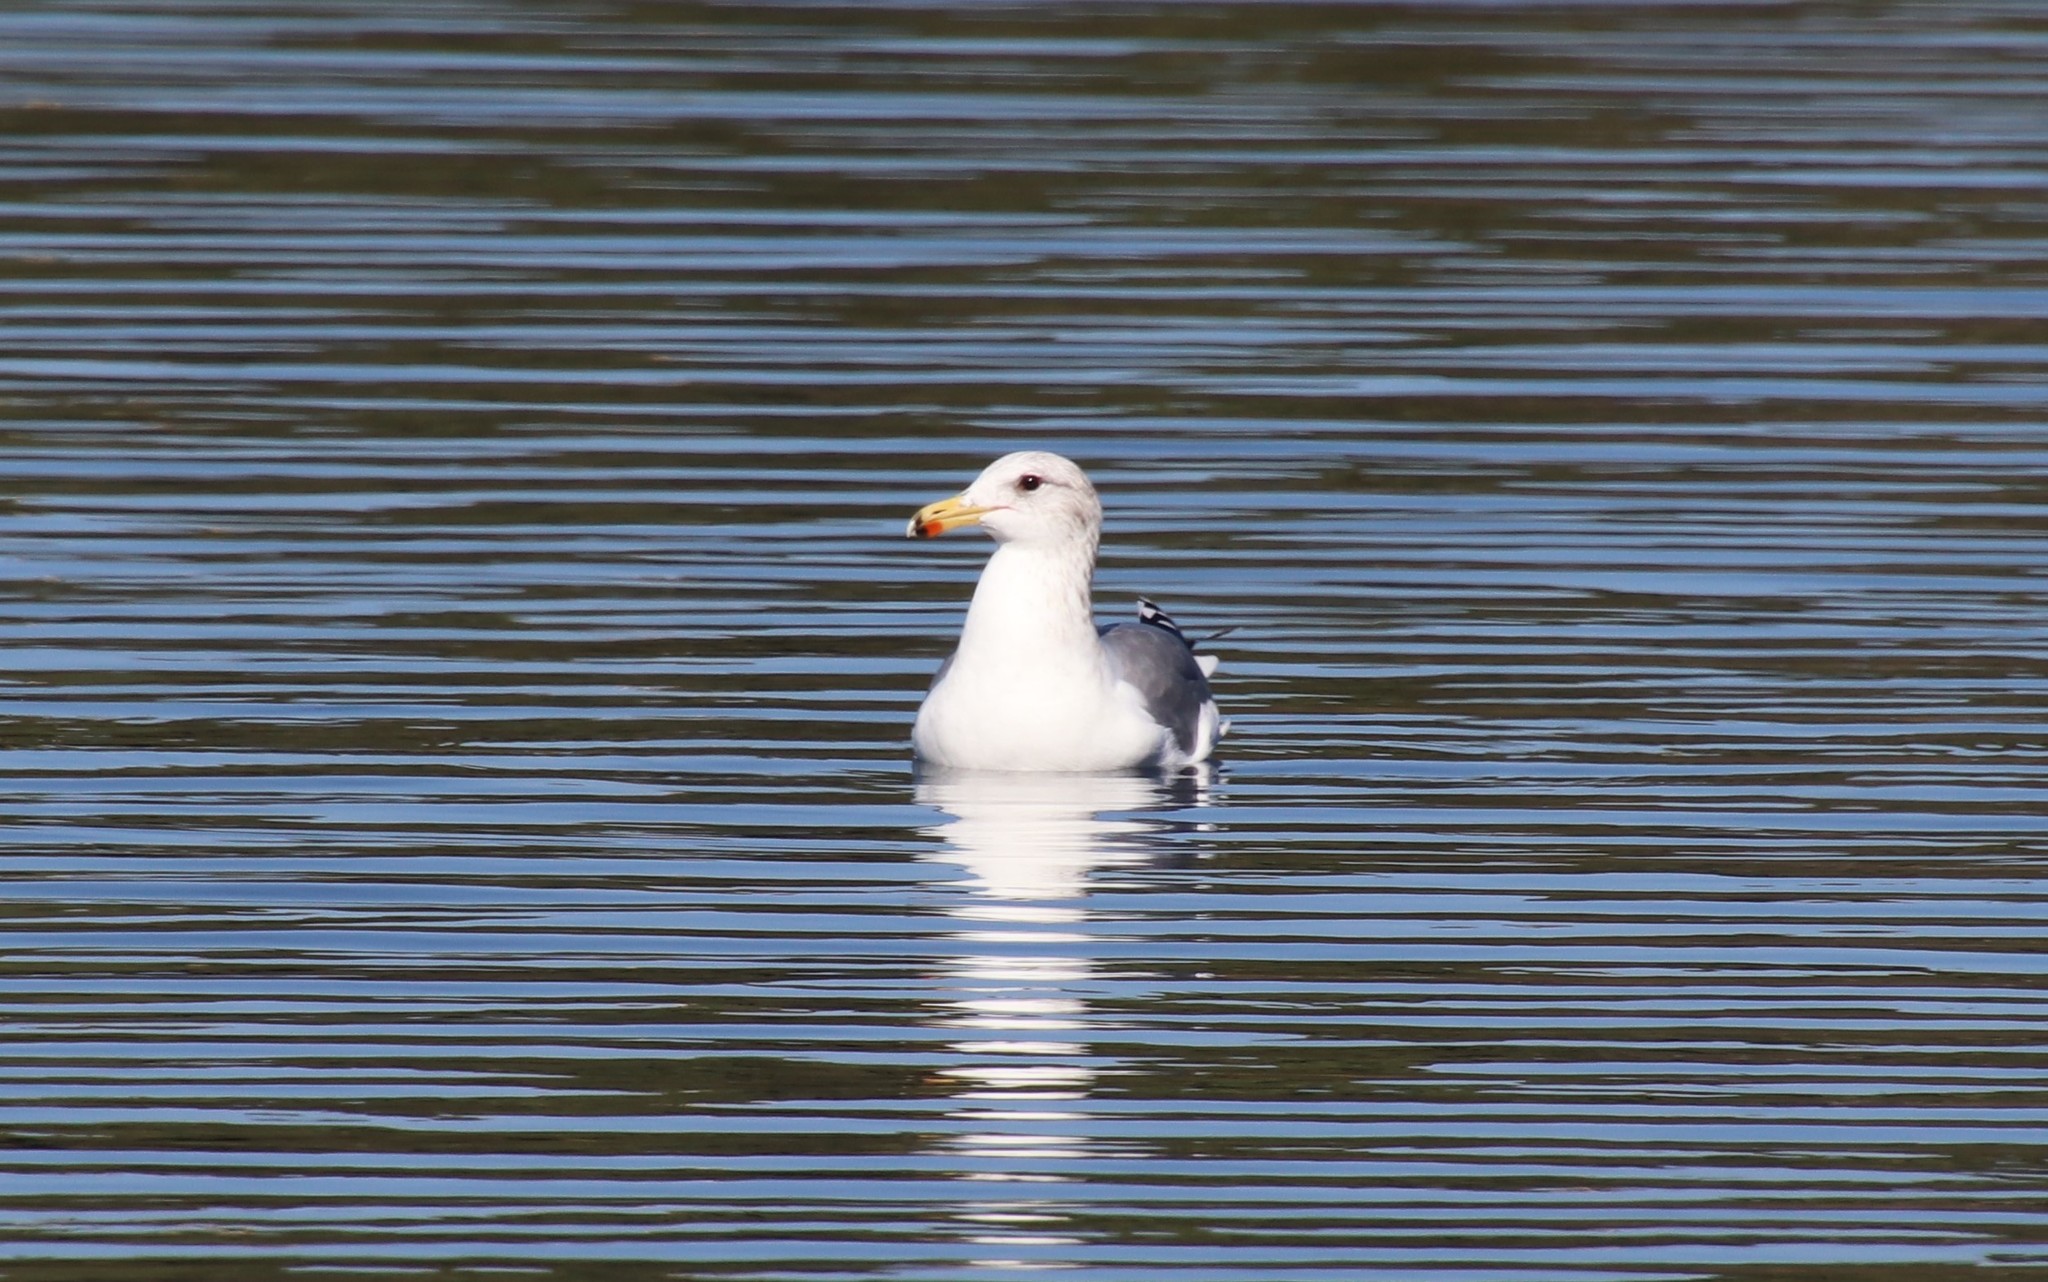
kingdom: Animalia
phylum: Chordata
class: Aves
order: Charadriiformes
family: Laridae
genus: Larus
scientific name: Larus californicus
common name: California gull
